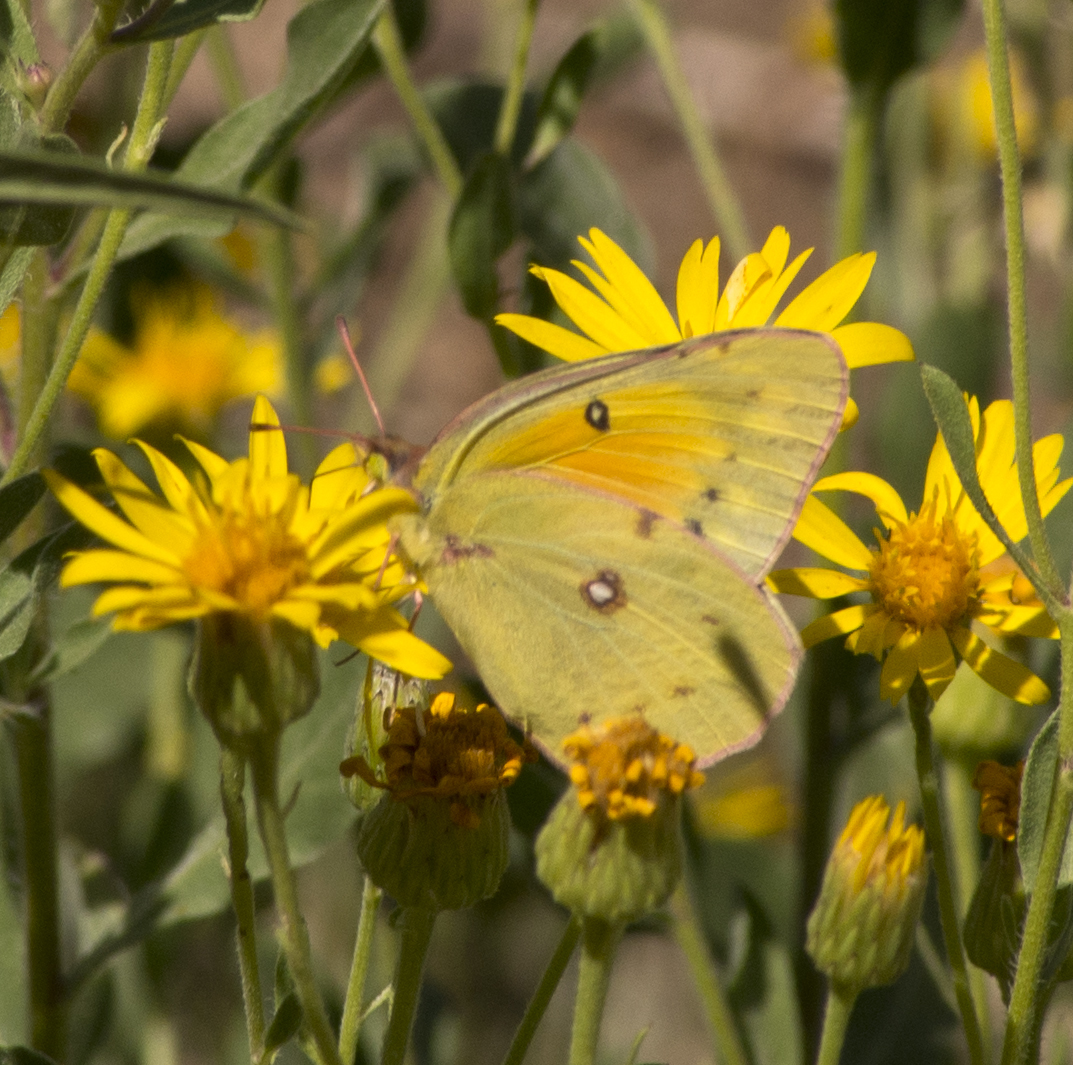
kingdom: Animalia
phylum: Arthropoda
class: Insecta
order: Lepidoptera
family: Pieridae
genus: Colias
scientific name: Colias eurytheme
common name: Alfalfa butterfly
